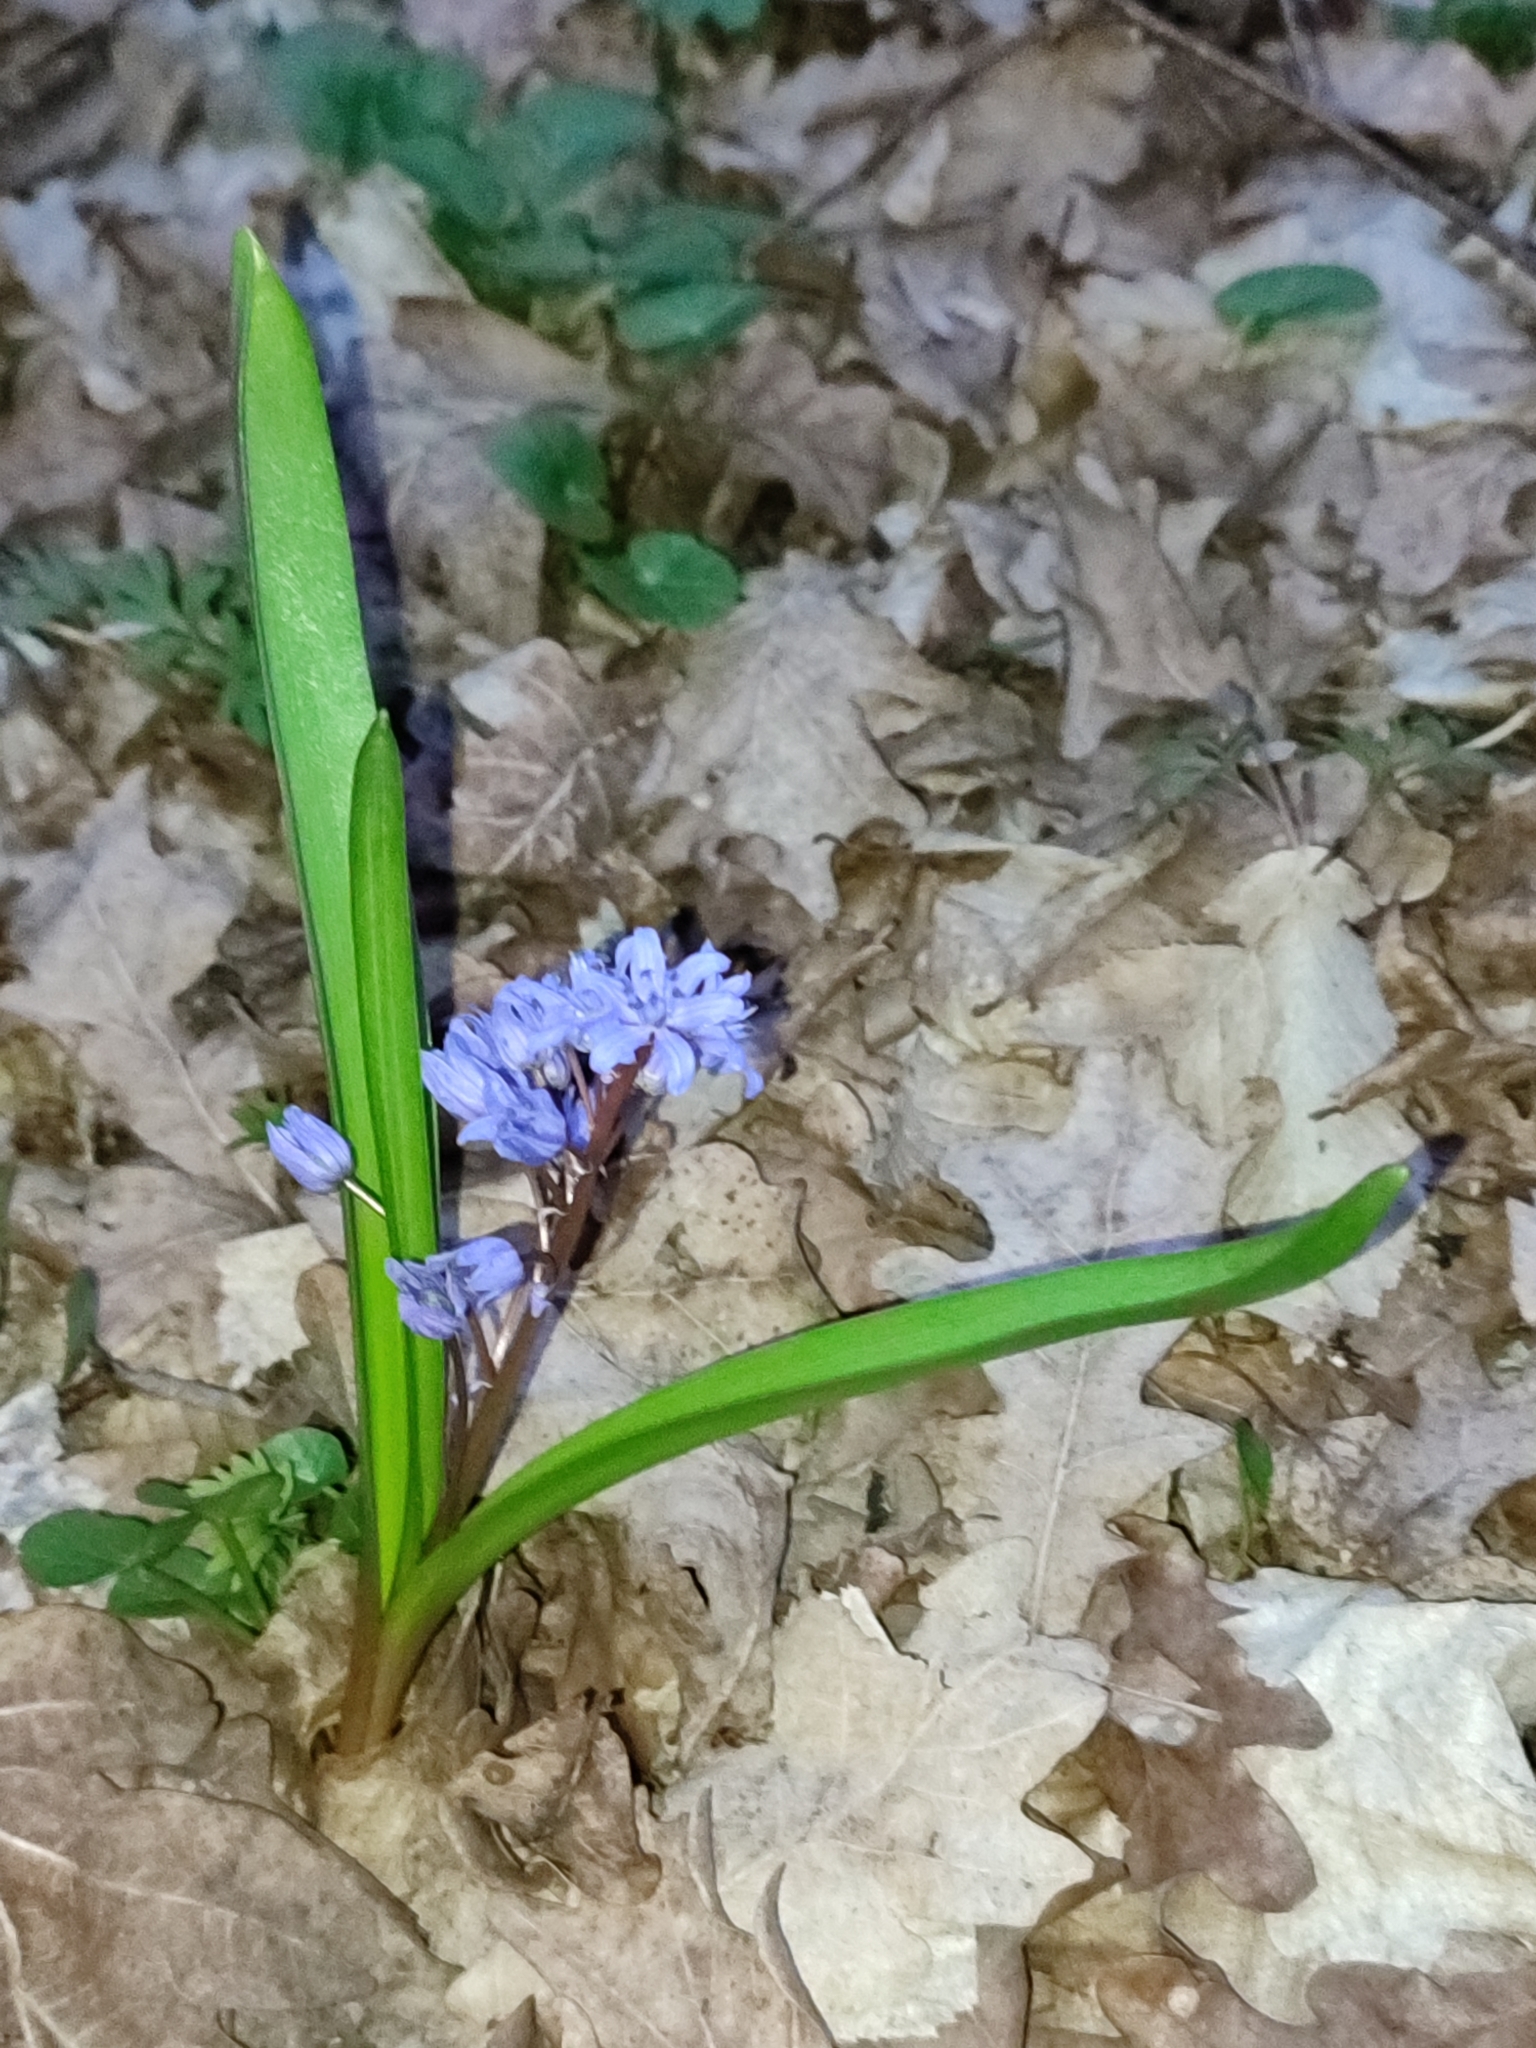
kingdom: Plantae
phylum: Tracheophyta
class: Liliopsida
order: Asparagales
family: Asparagaceae
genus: Scilla
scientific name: Scilla bifolia
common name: Alpine squill
